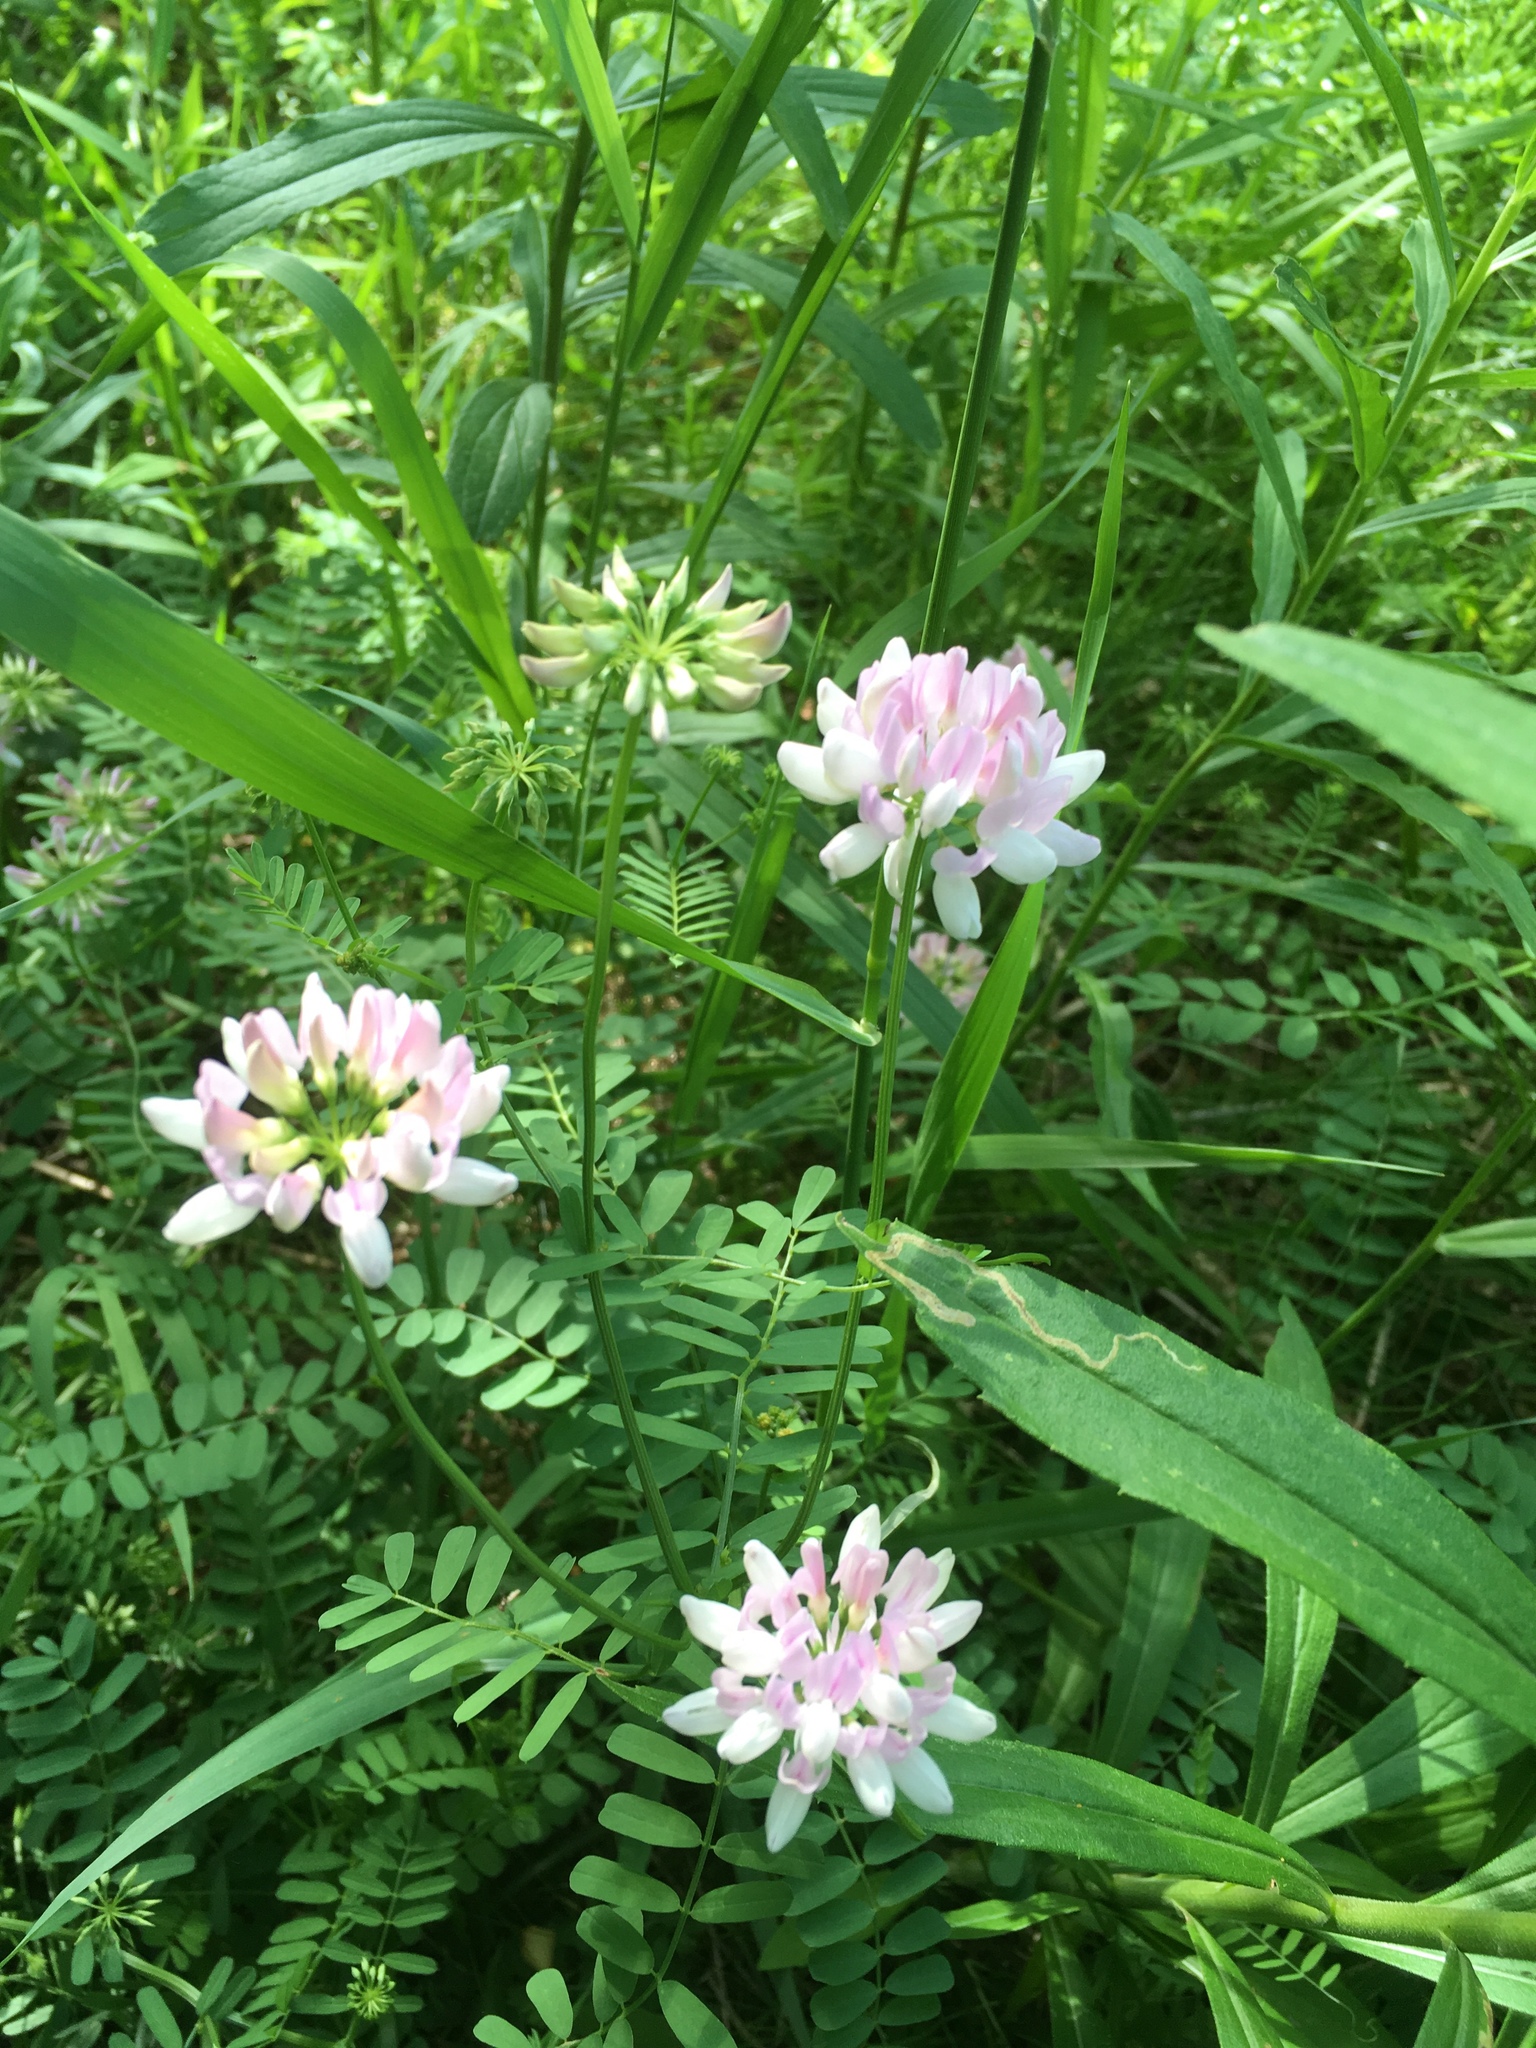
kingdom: Plantae
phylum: Tracheophyta
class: Magnoliopsida
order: Fabales
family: Fabaceae
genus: Coronilla
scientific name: Coronilla varia
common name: Crownvetch
